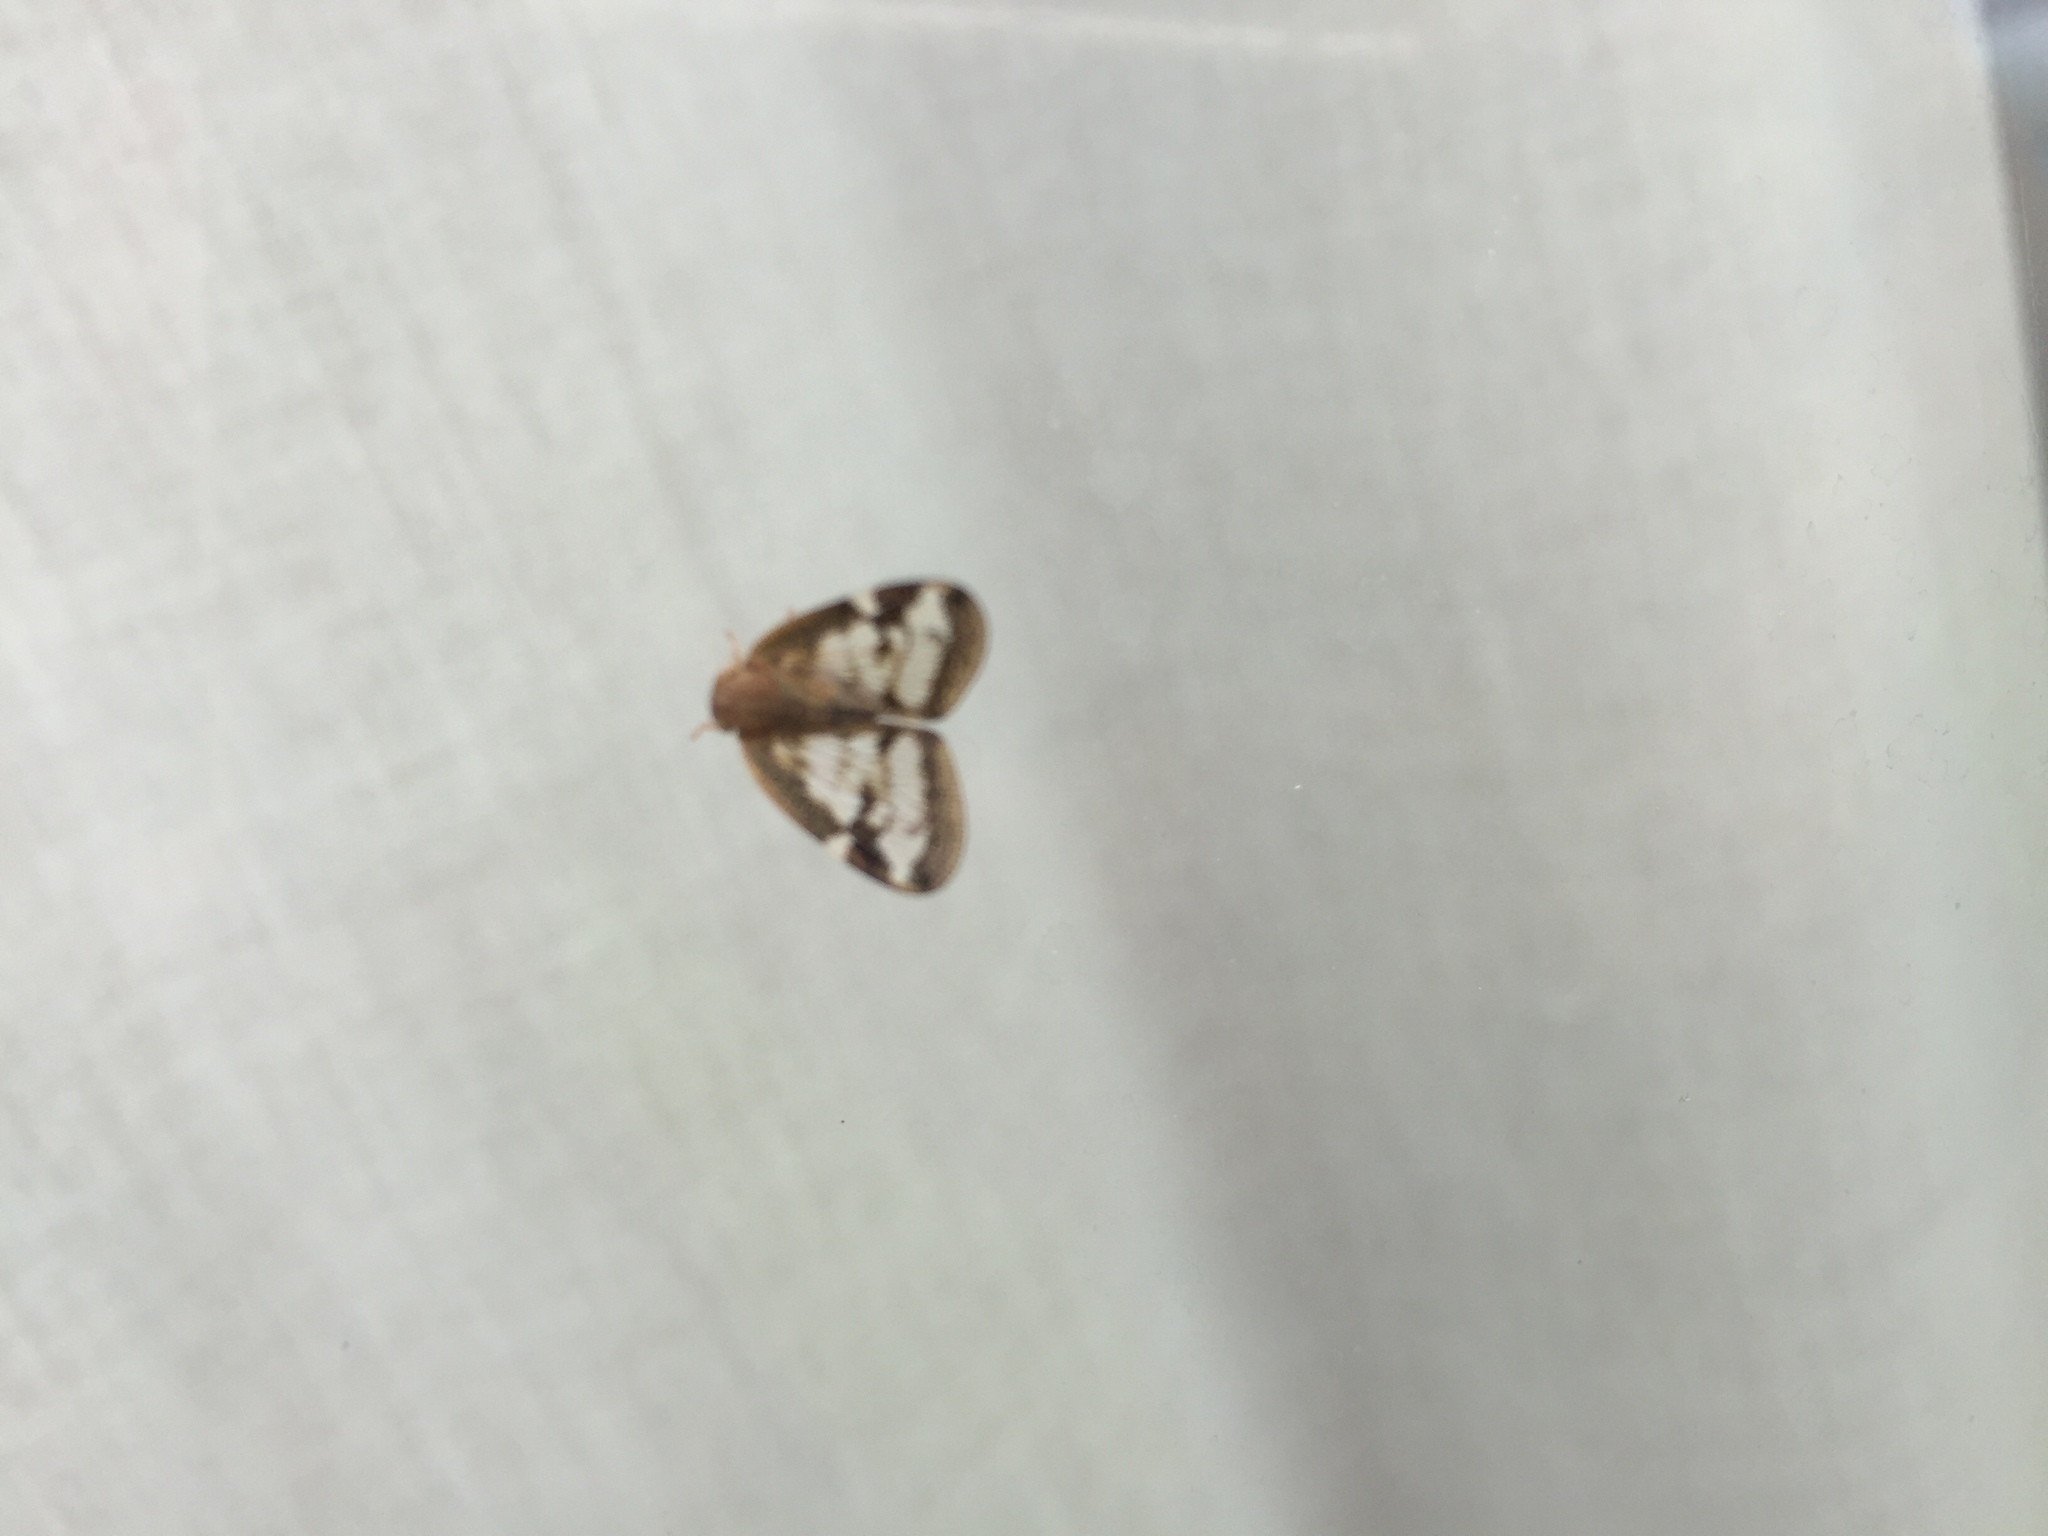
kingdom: Animalia
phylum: Arthropoda
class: Insecta
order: Hemiptera
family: Ricaniidae
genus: Scolypopa
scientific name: Scolypopa australis
